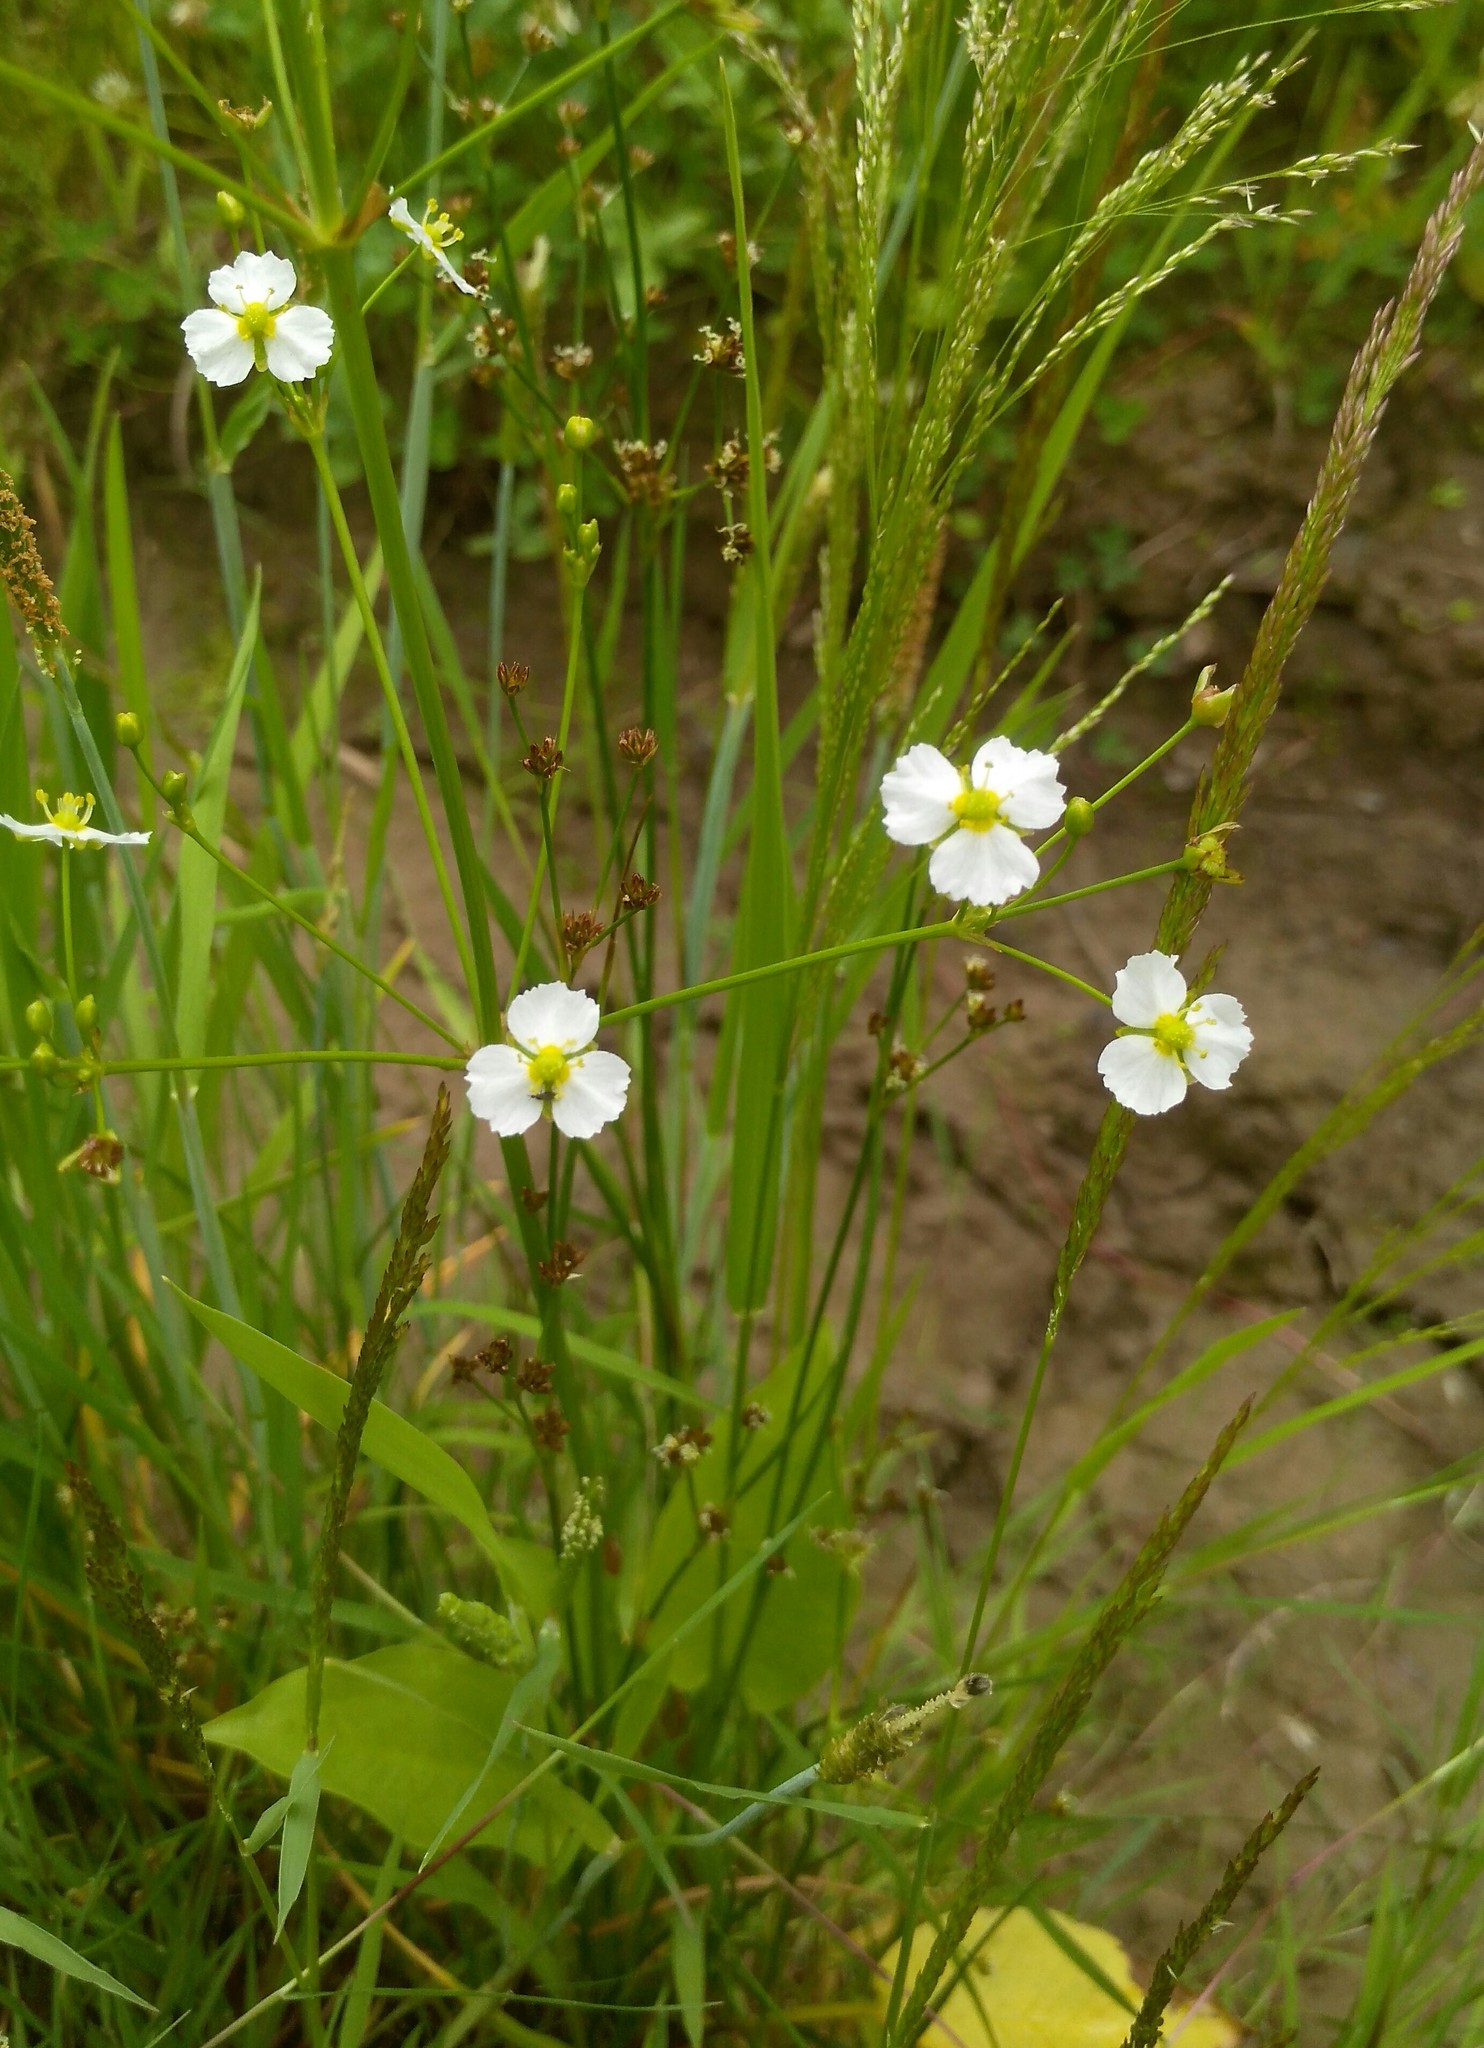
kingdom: Plantae
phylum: Tracheophyta
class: Liliopsida
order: Alismatales
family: Alismataceae
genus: Alisma
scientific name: Alisma plantago-aquatica
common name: Water-plantain
